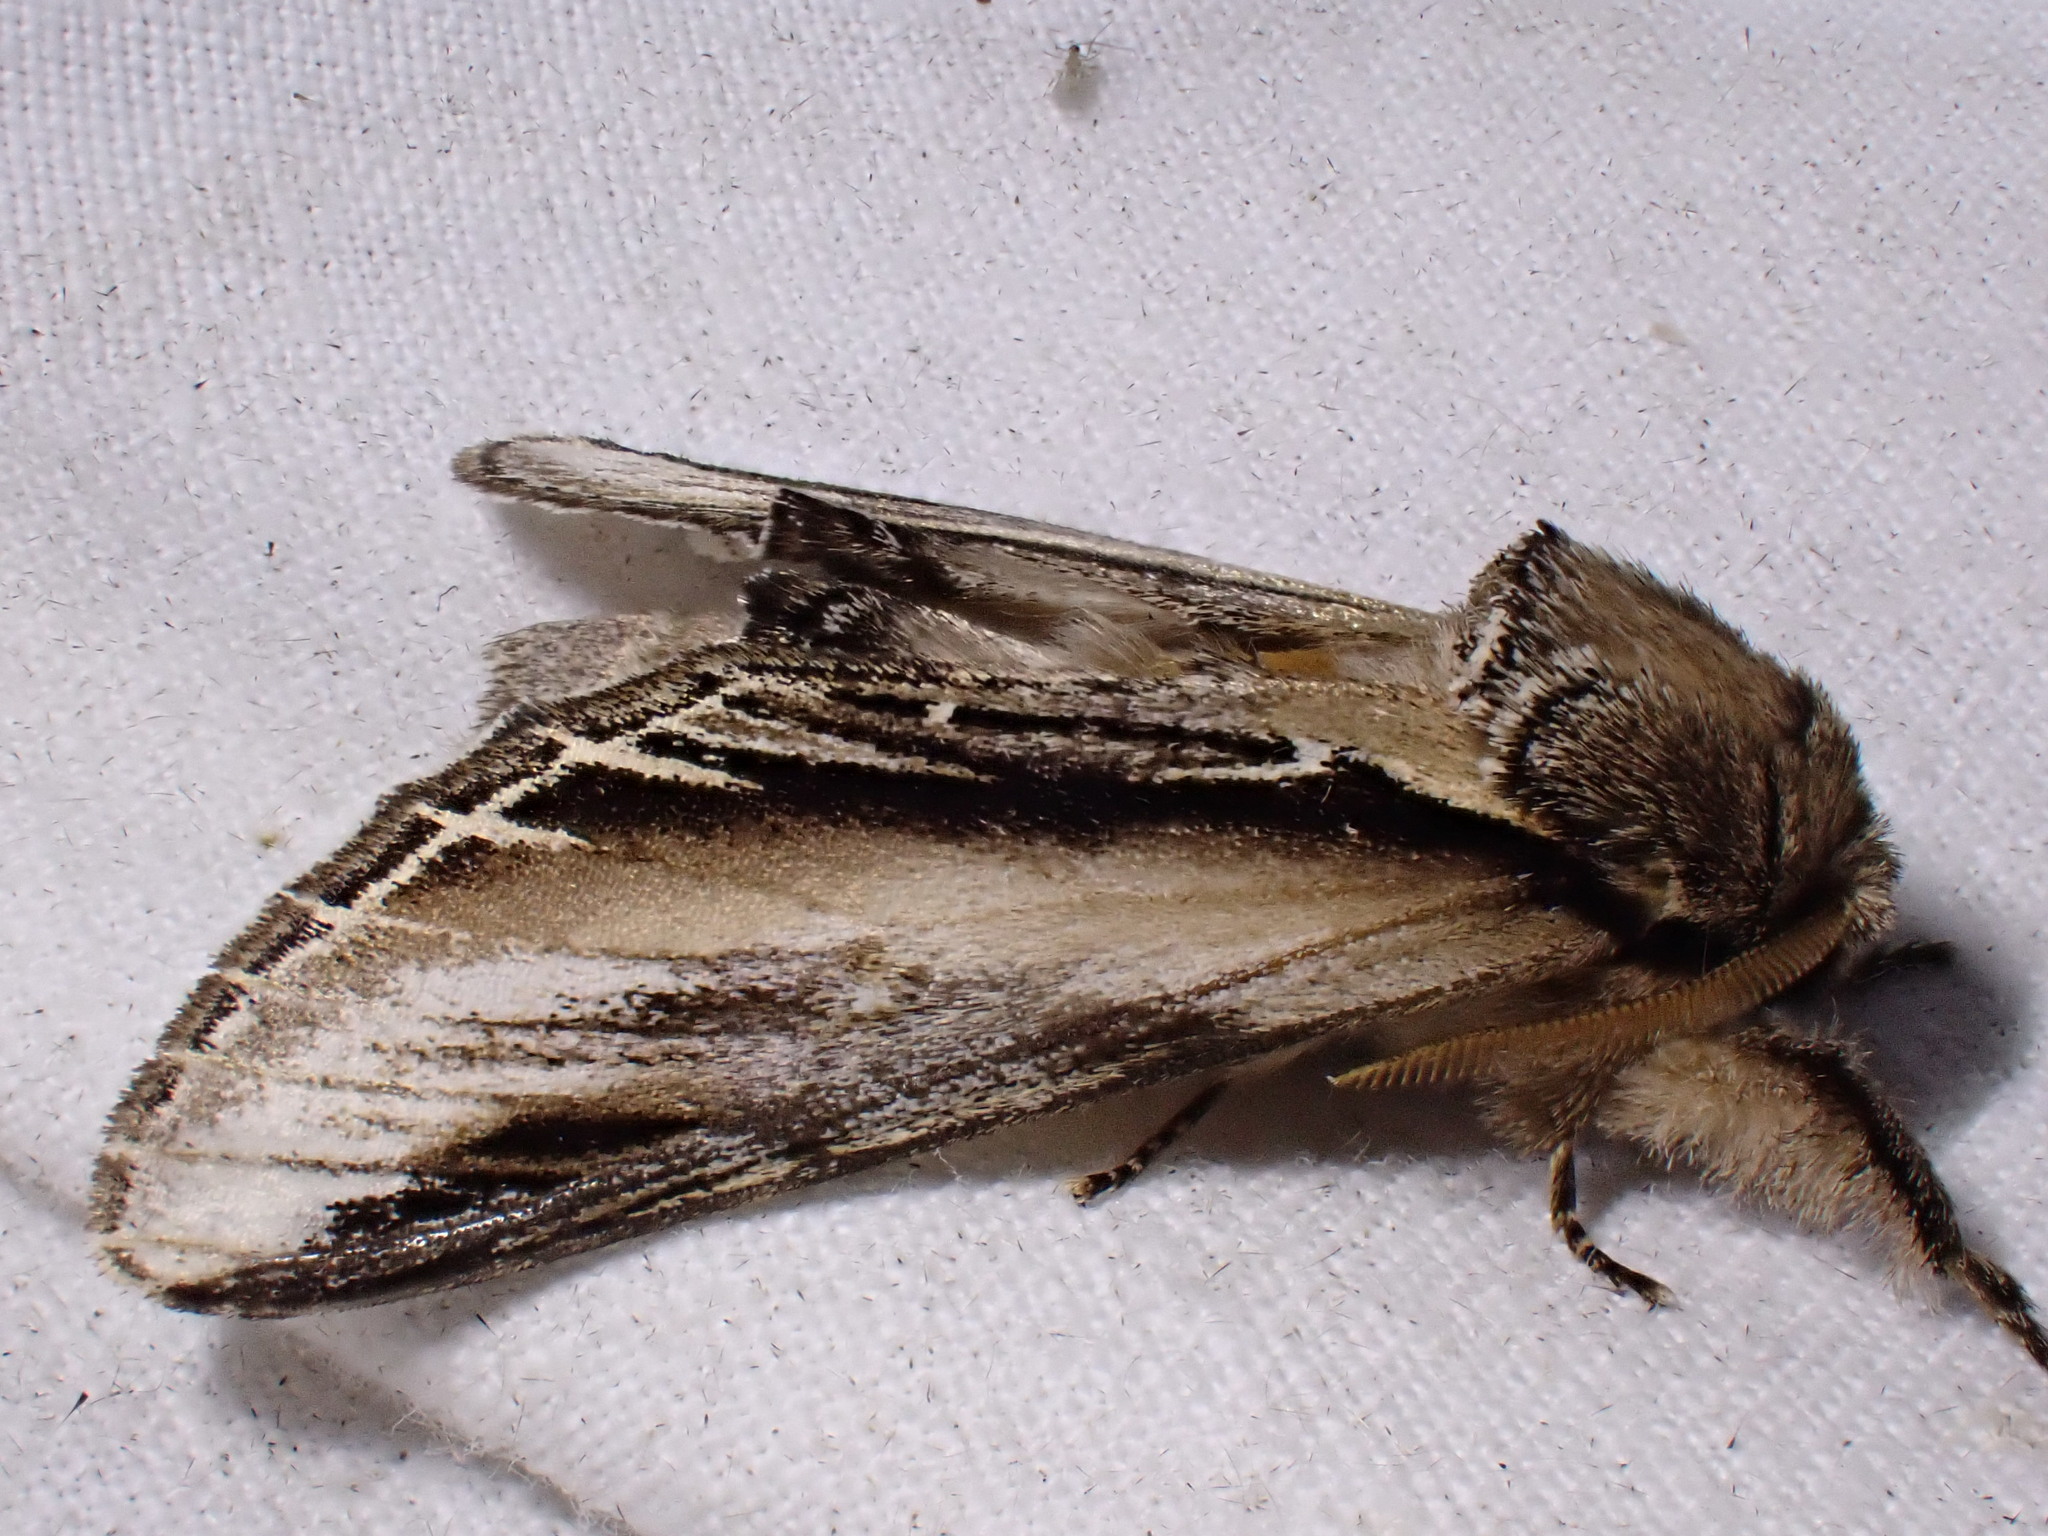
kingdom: Animalia
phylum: Arthropoda
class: Insecta
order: Lepidoptera
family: Notodontidae
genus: Pheosia
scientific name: Pheosia tremula
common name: Swallow prominent
